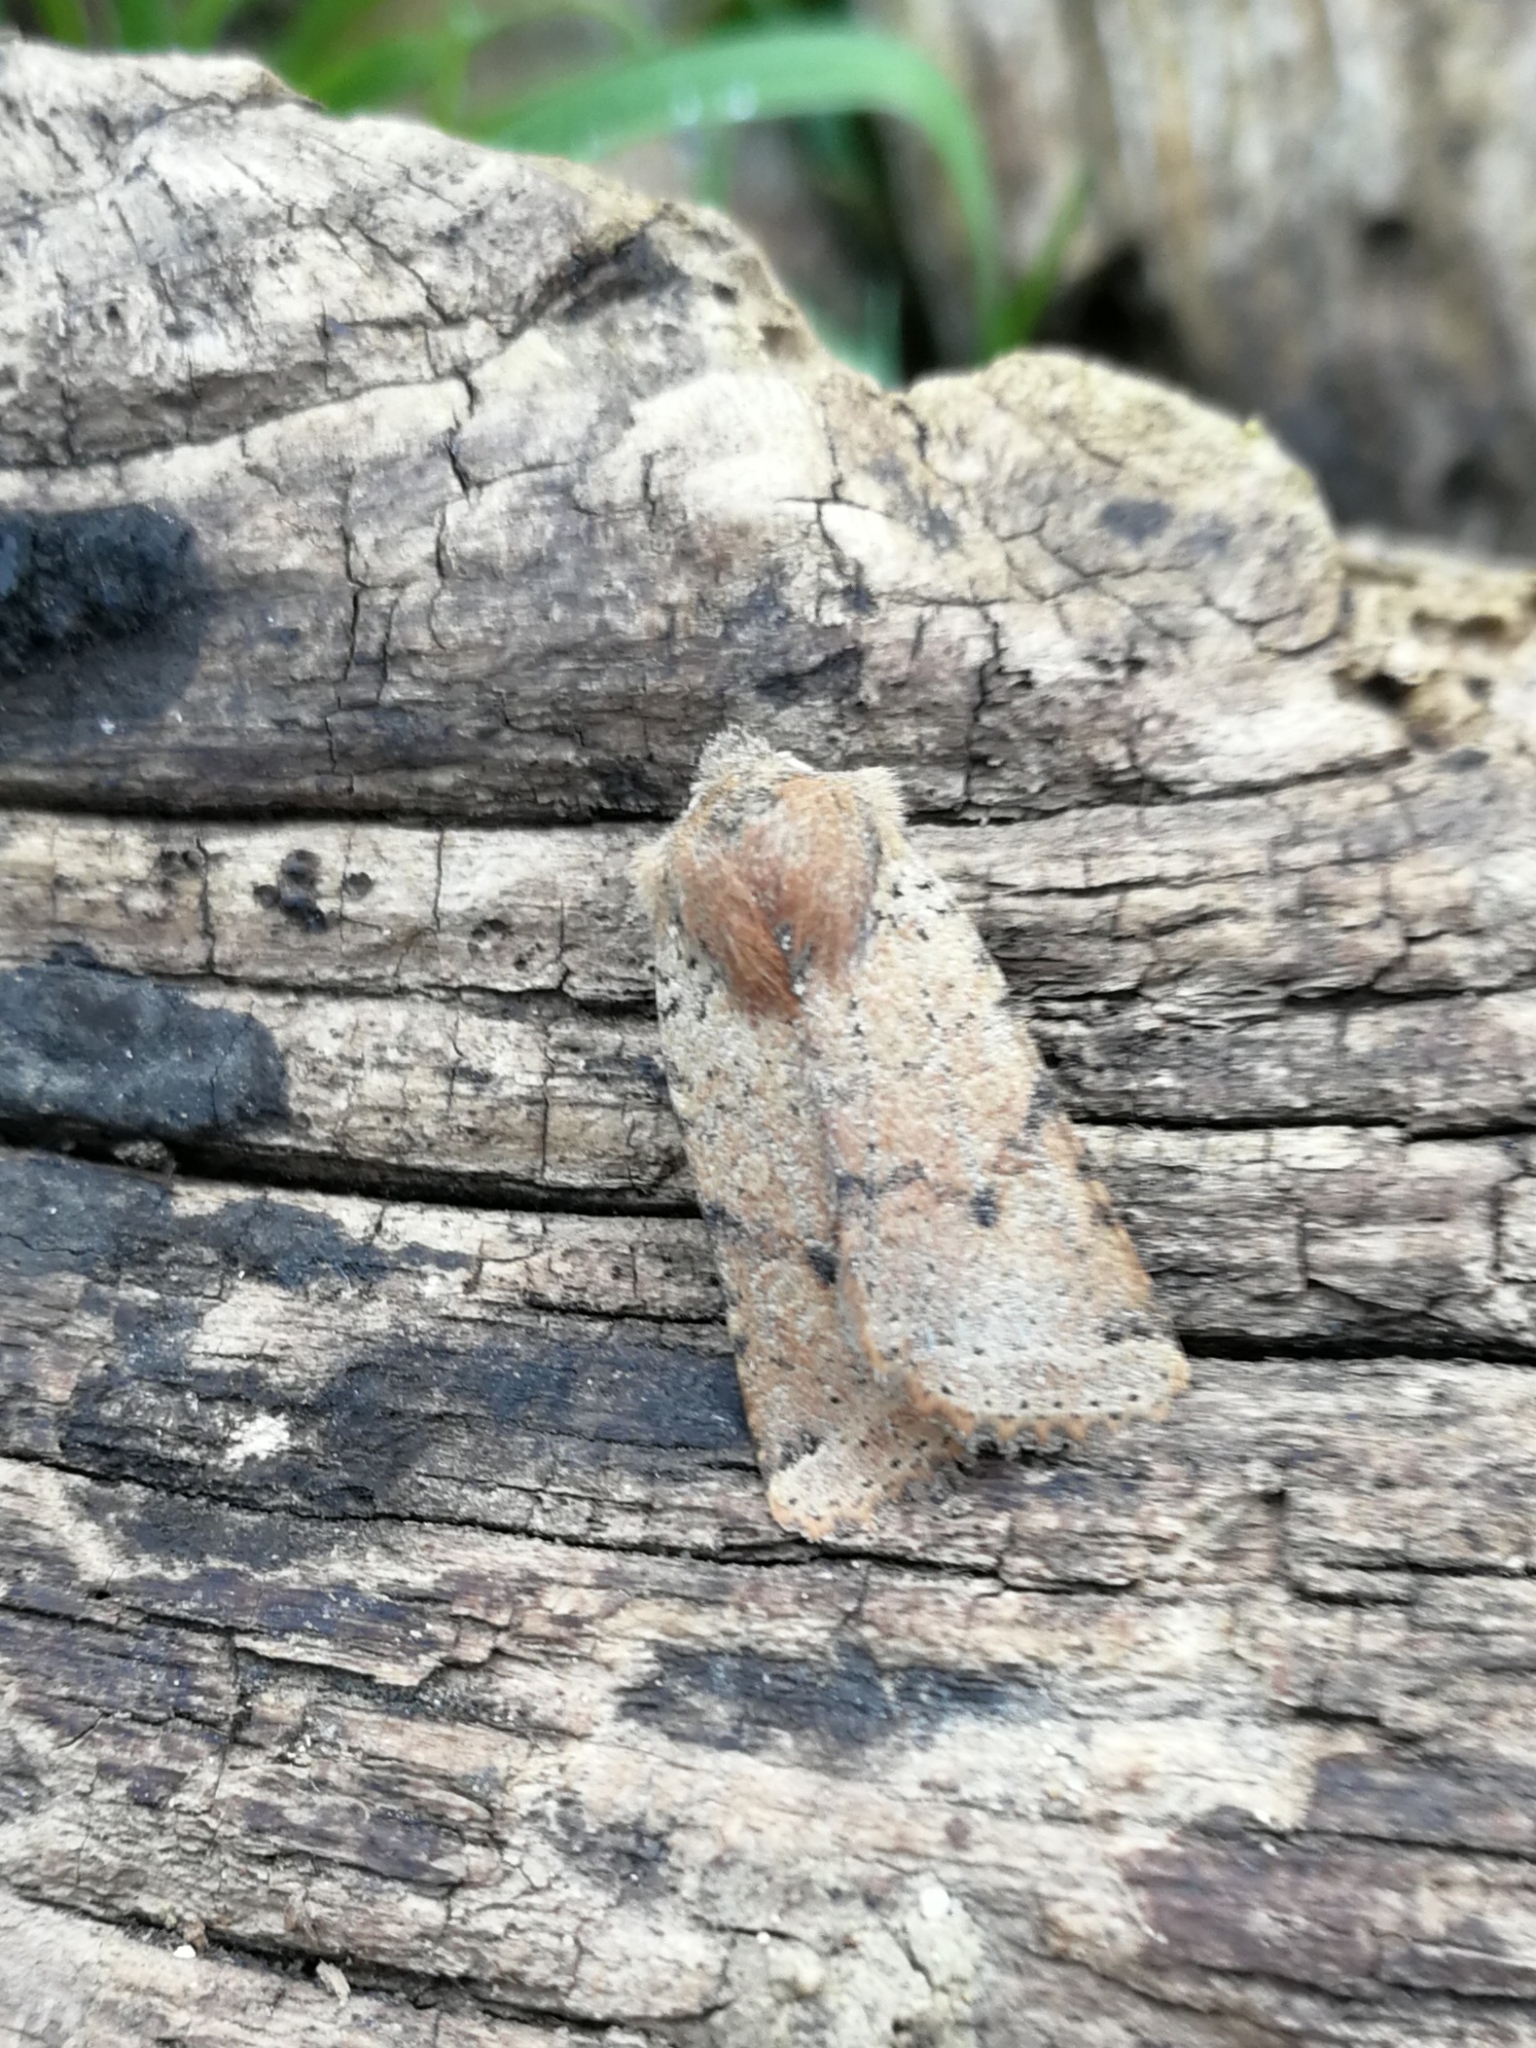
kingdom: Animalia
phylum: Arthropoda
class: Insecta
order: Lepidoptera
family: Noctuidae
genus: Agrochola
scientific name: Agrochola ruticilla
